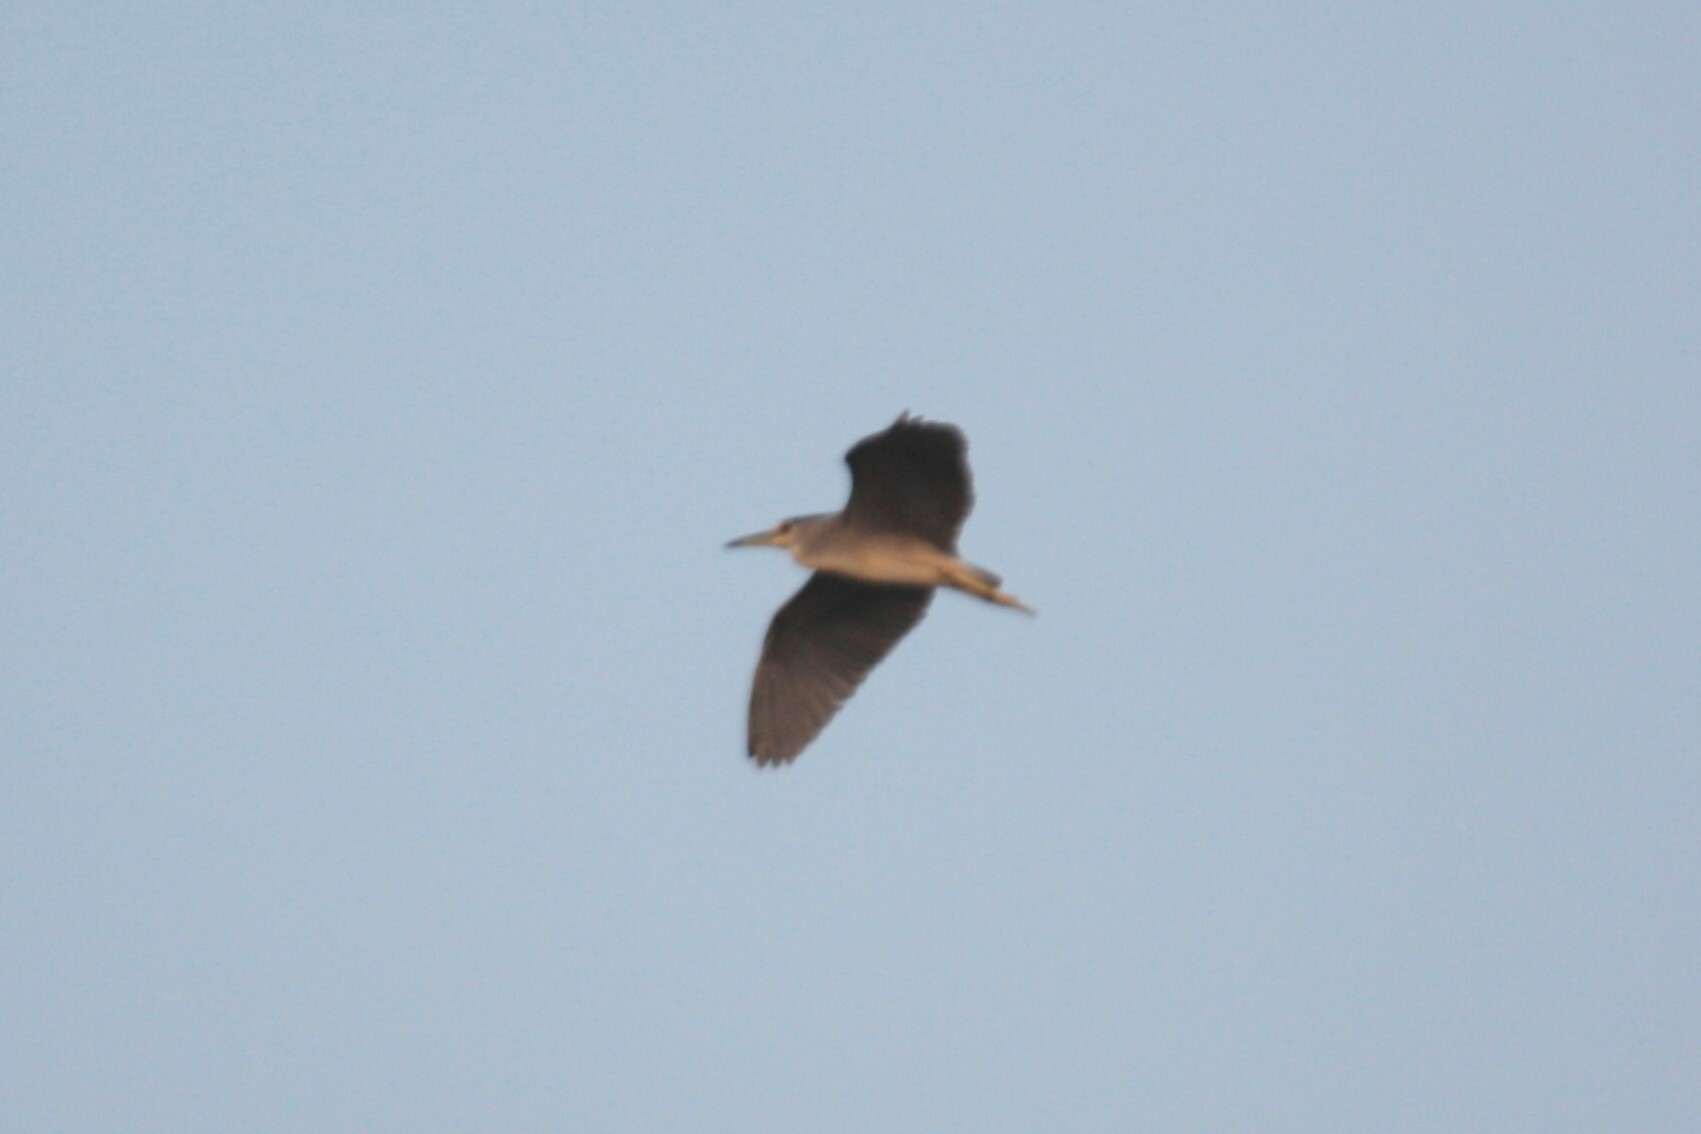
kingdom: Animalia
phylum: Chordata
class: Aves
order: Pelecaniformes
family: Ardeidae
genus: Nycticorax
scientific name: Nycticorax nycticorax
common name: Black-crowned night heron
